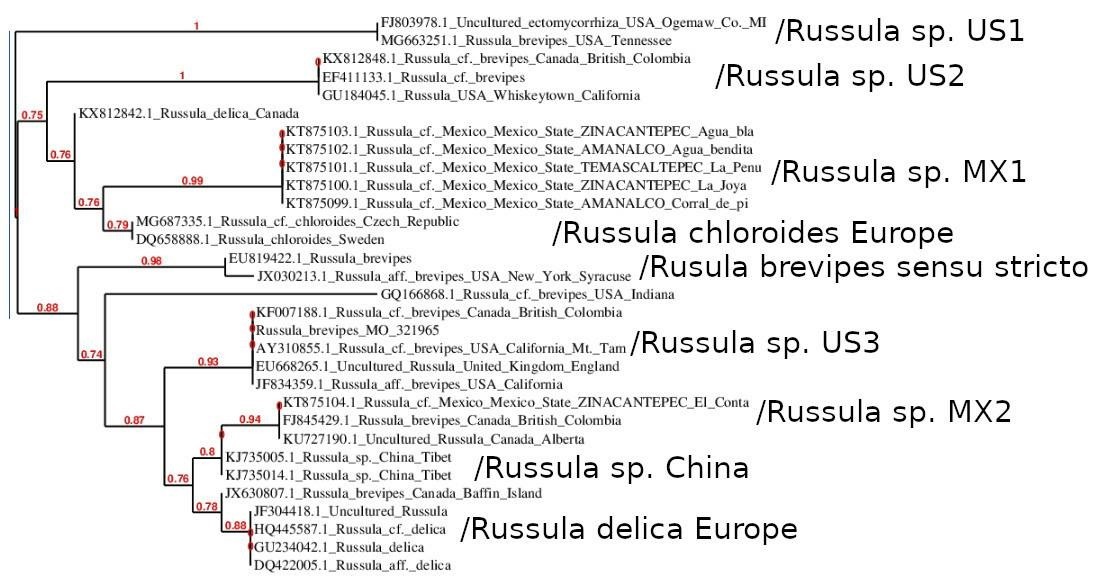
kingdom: Fungi
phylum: Basidiomycota
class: Agaricomycetes
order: Russulales
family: Russulaceae
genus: Russula
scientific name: Russula brevipes
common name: Short-stemmed russula
